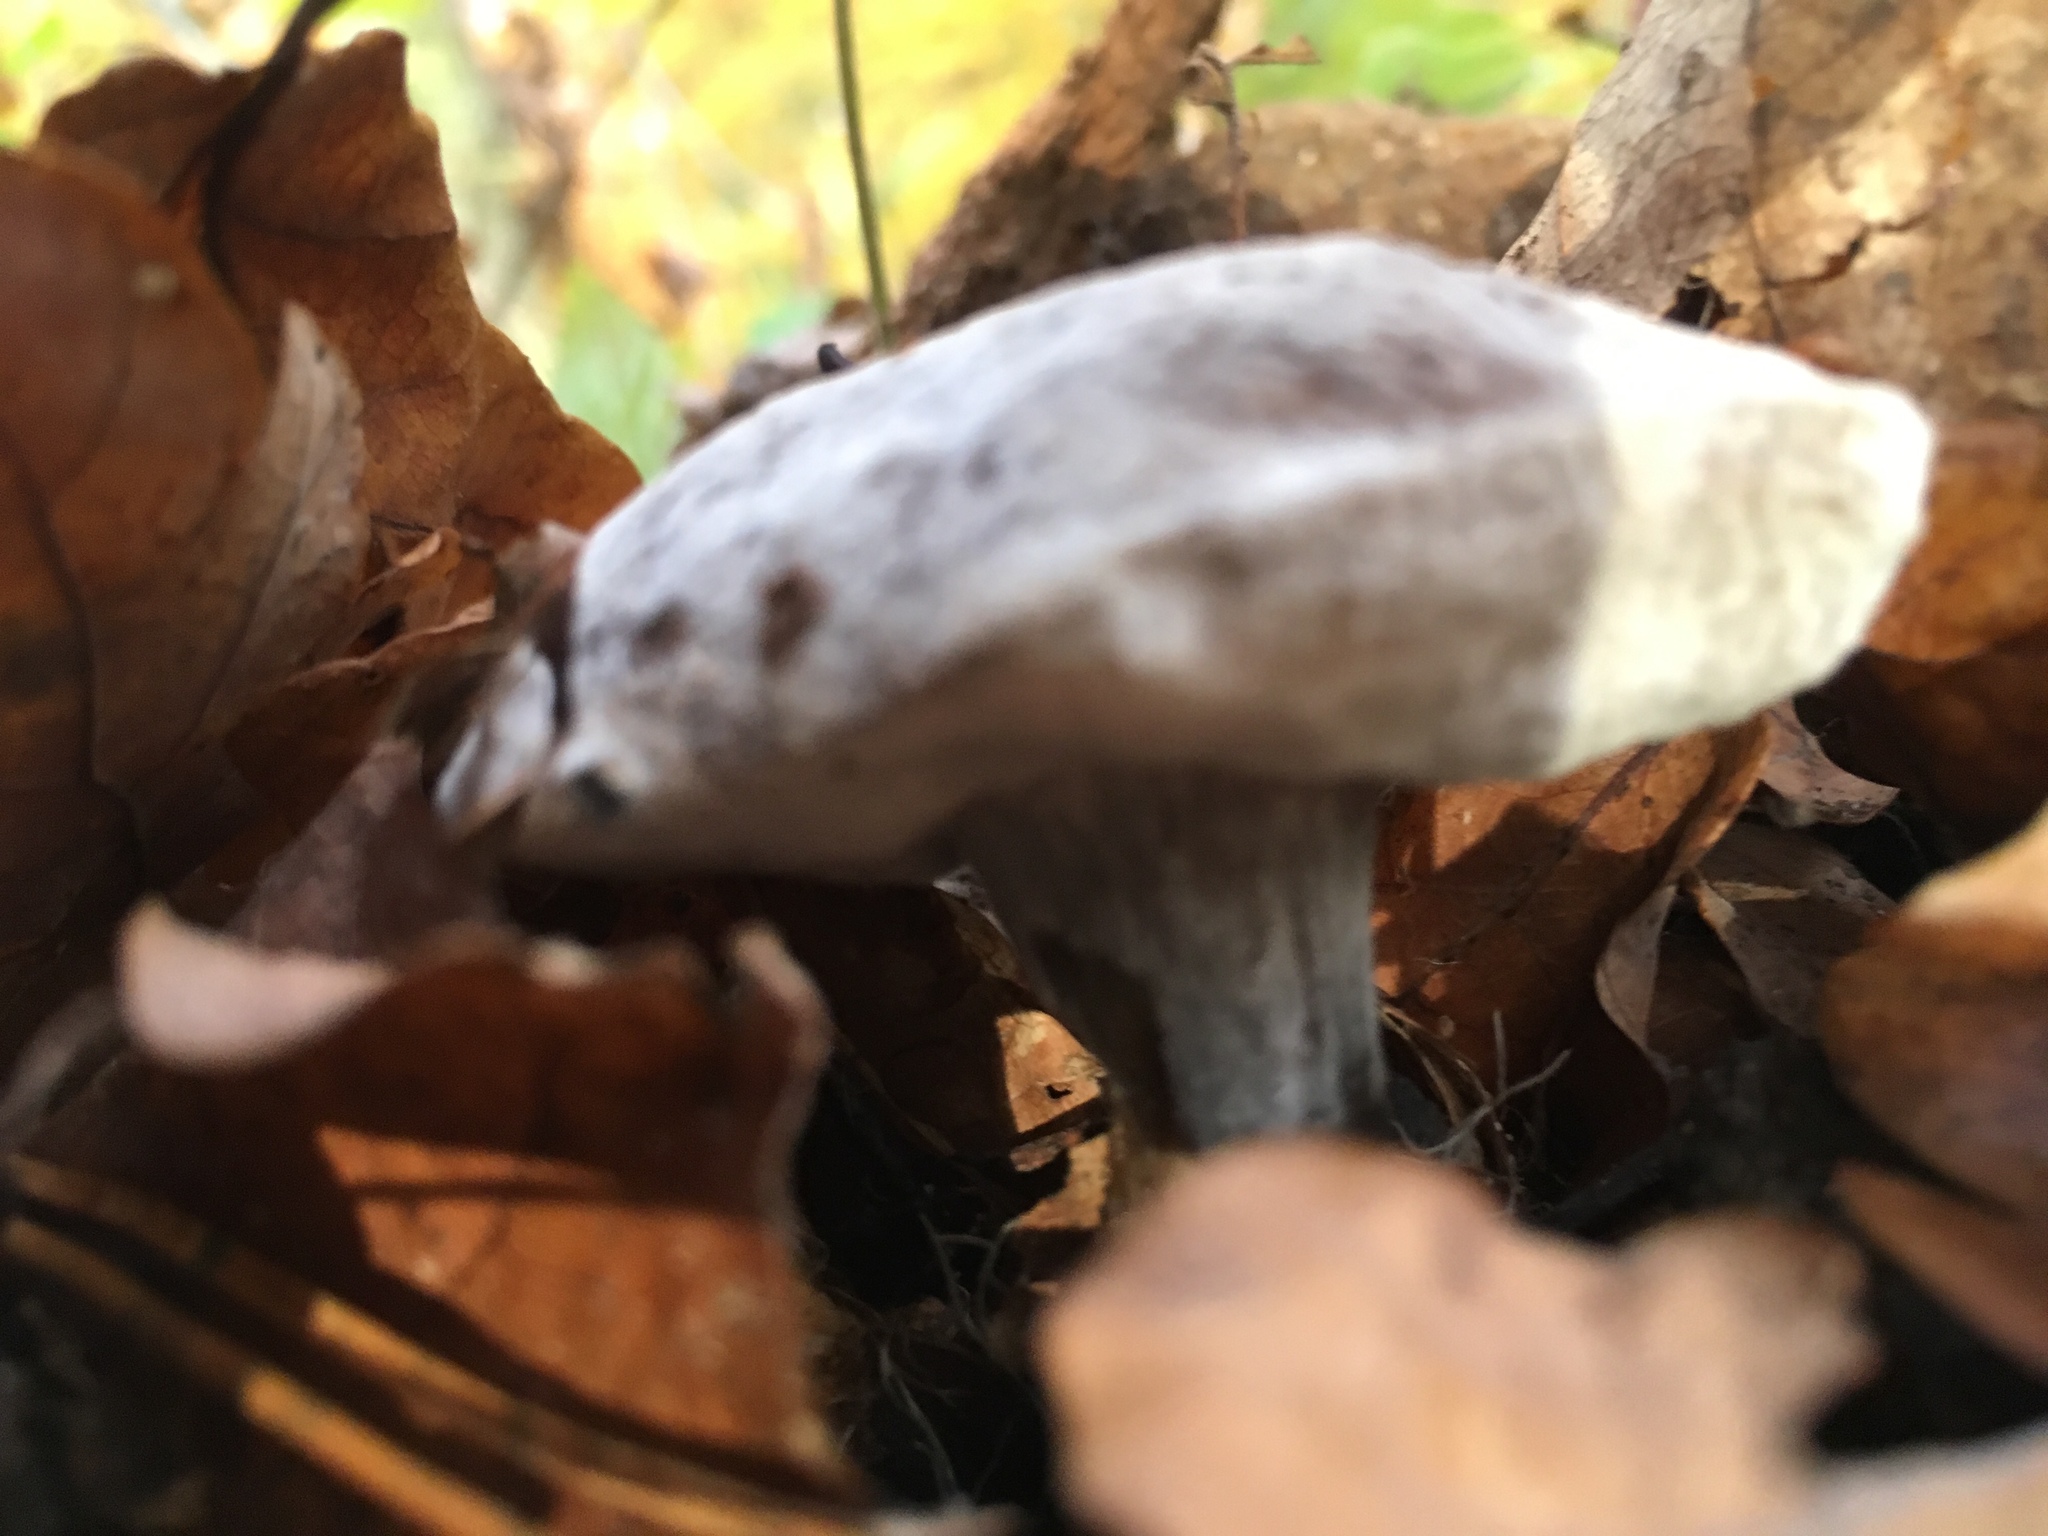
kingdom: Fungi
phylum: Ascomycota
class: Sordariomycetes
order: Hypocreales
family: Hypocreaceae
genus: Hypomyces
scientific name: Hypomyces chrysospermus
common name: Bolete mould
